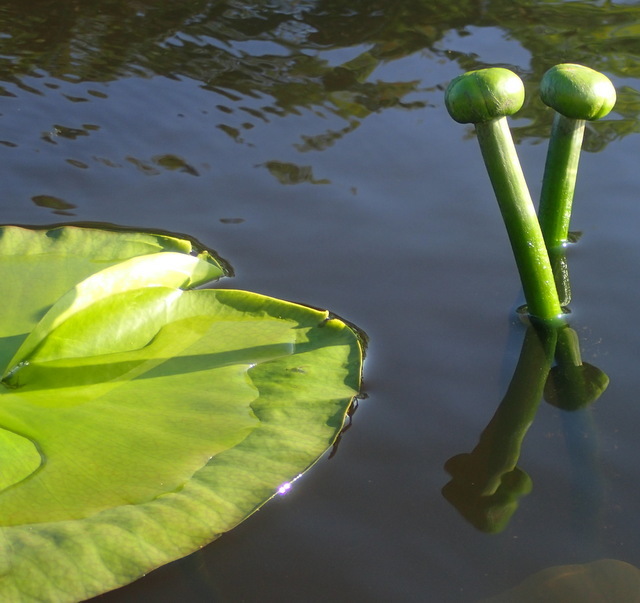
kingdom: Plantae
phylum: Tracheophyta
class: Magnoliopsida
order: Nymphaeales
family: Nymphaeaceae
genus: Nuphar
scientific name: Nuphar advena
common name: Spatter-dock
